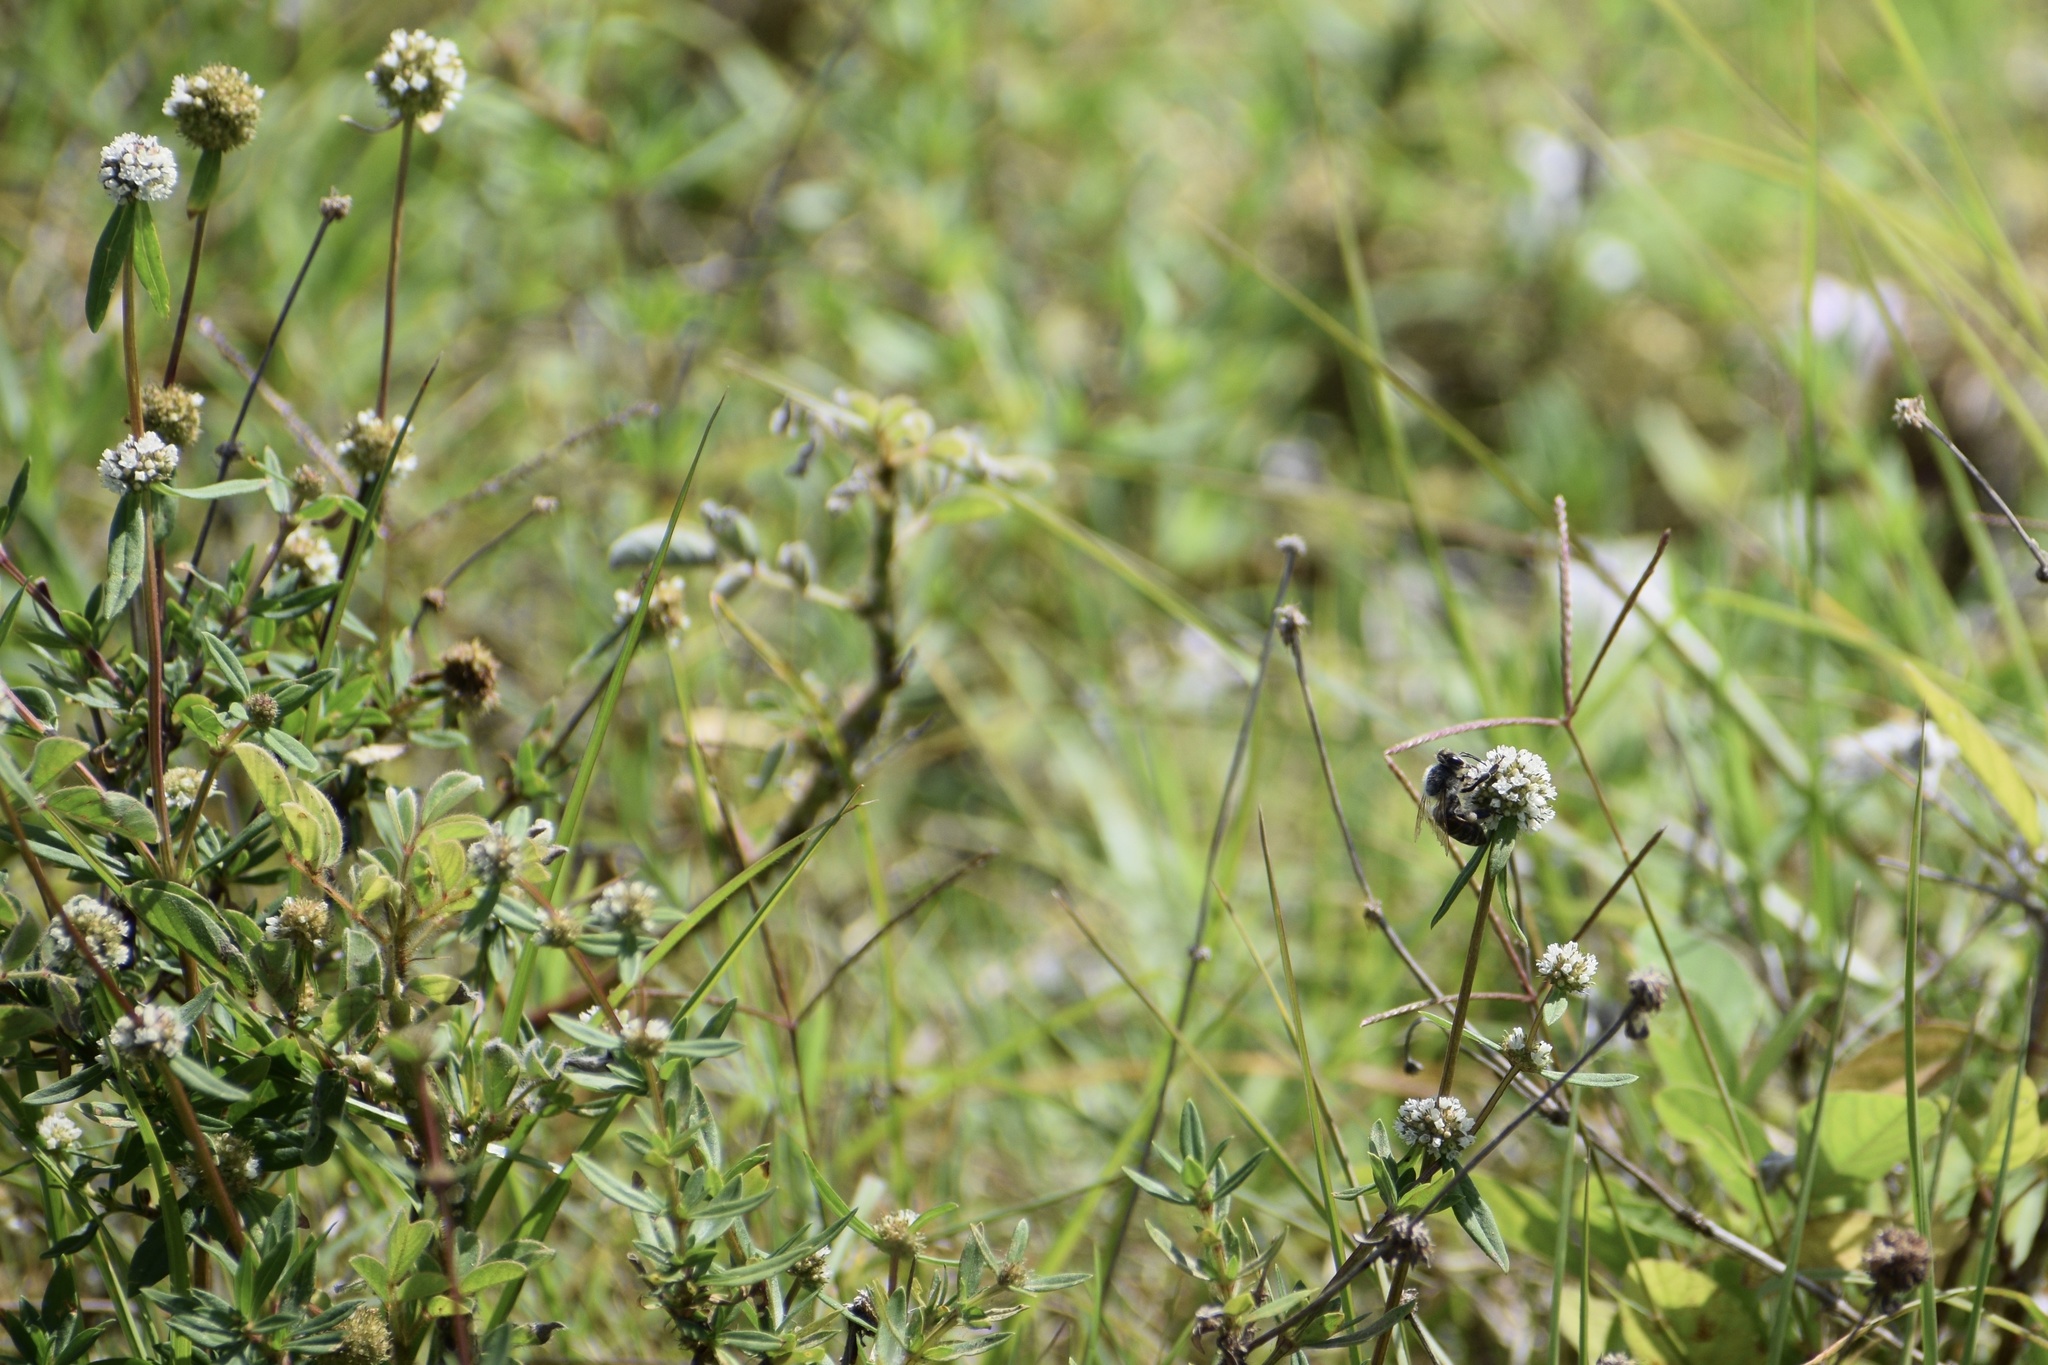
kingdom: Plantae
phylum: Tracheophyta
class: Magnoliopsida
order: Gentianales
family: Rubiaceae
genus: Spermacoce
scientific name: Spermacoce verticillata
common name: Shrubby false buttonweed
